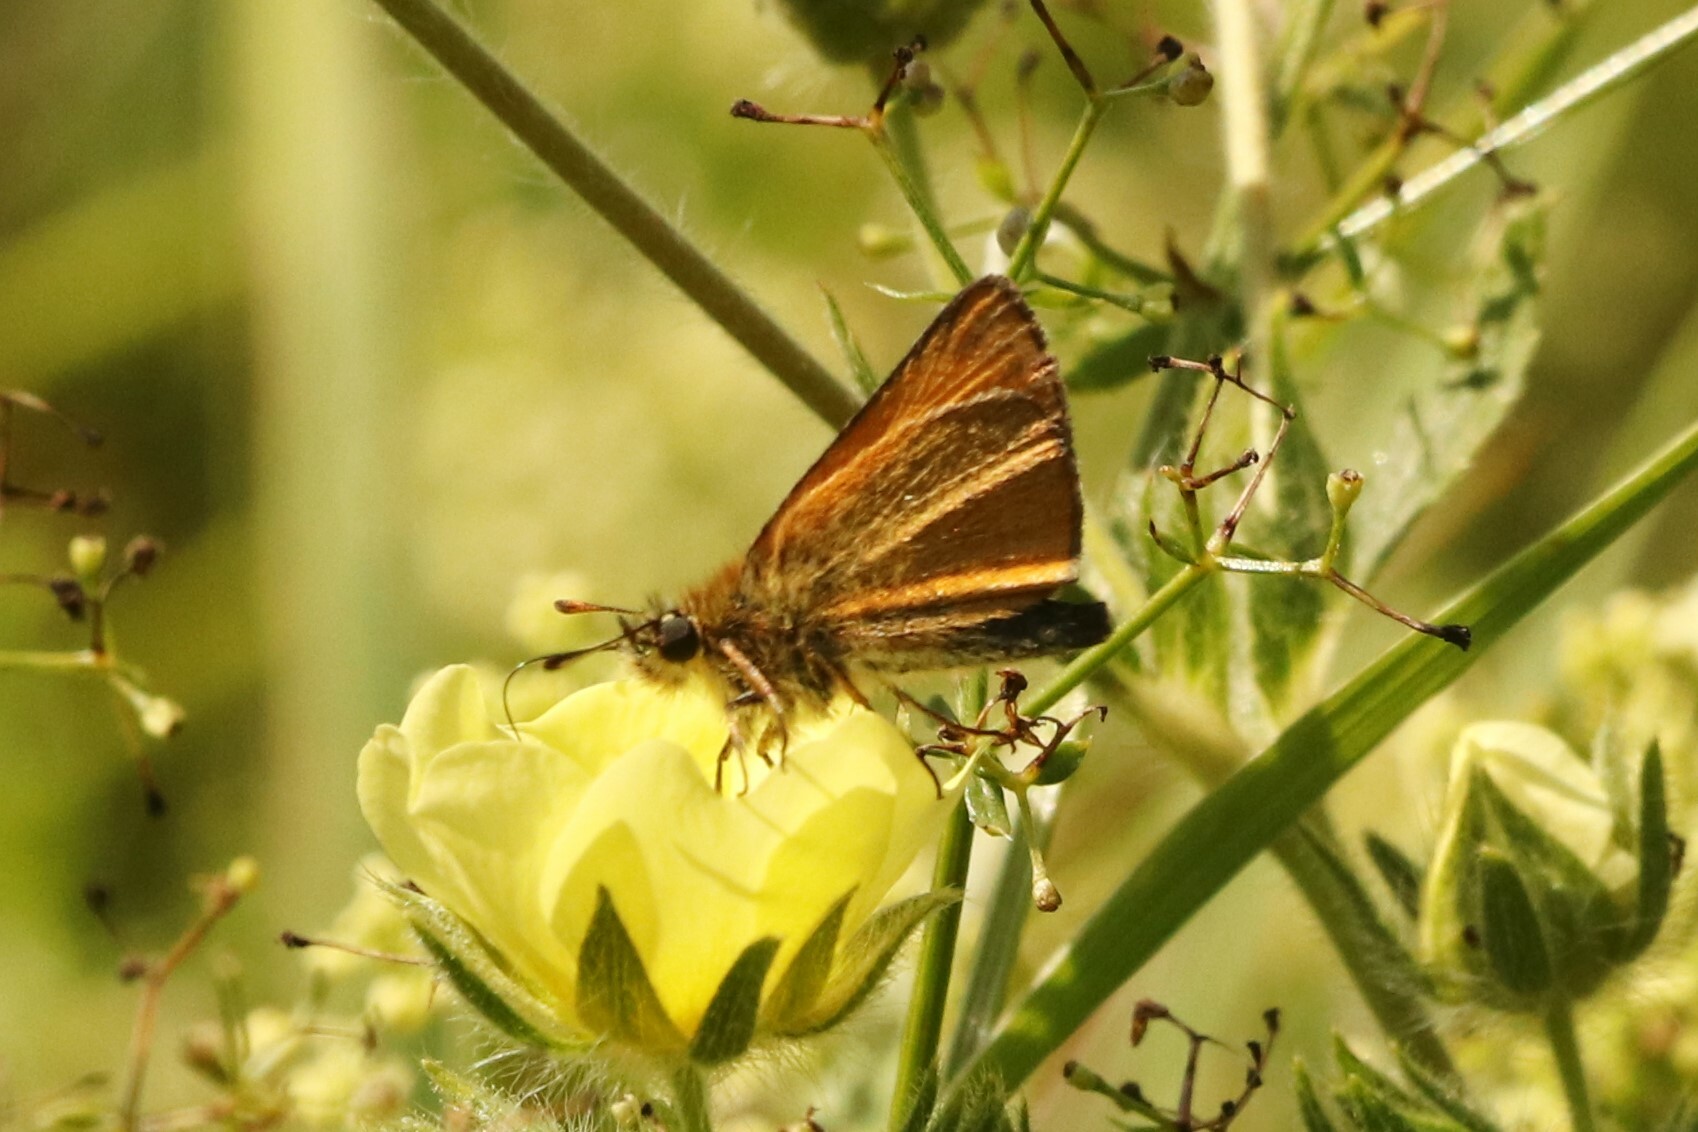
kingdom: Animalia
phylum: Arthropoda
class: Insecta
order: Lepidoptera
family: Hesperiidae
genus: Thymelicus
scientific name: Thymelicus lineola
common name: Essex skipper
